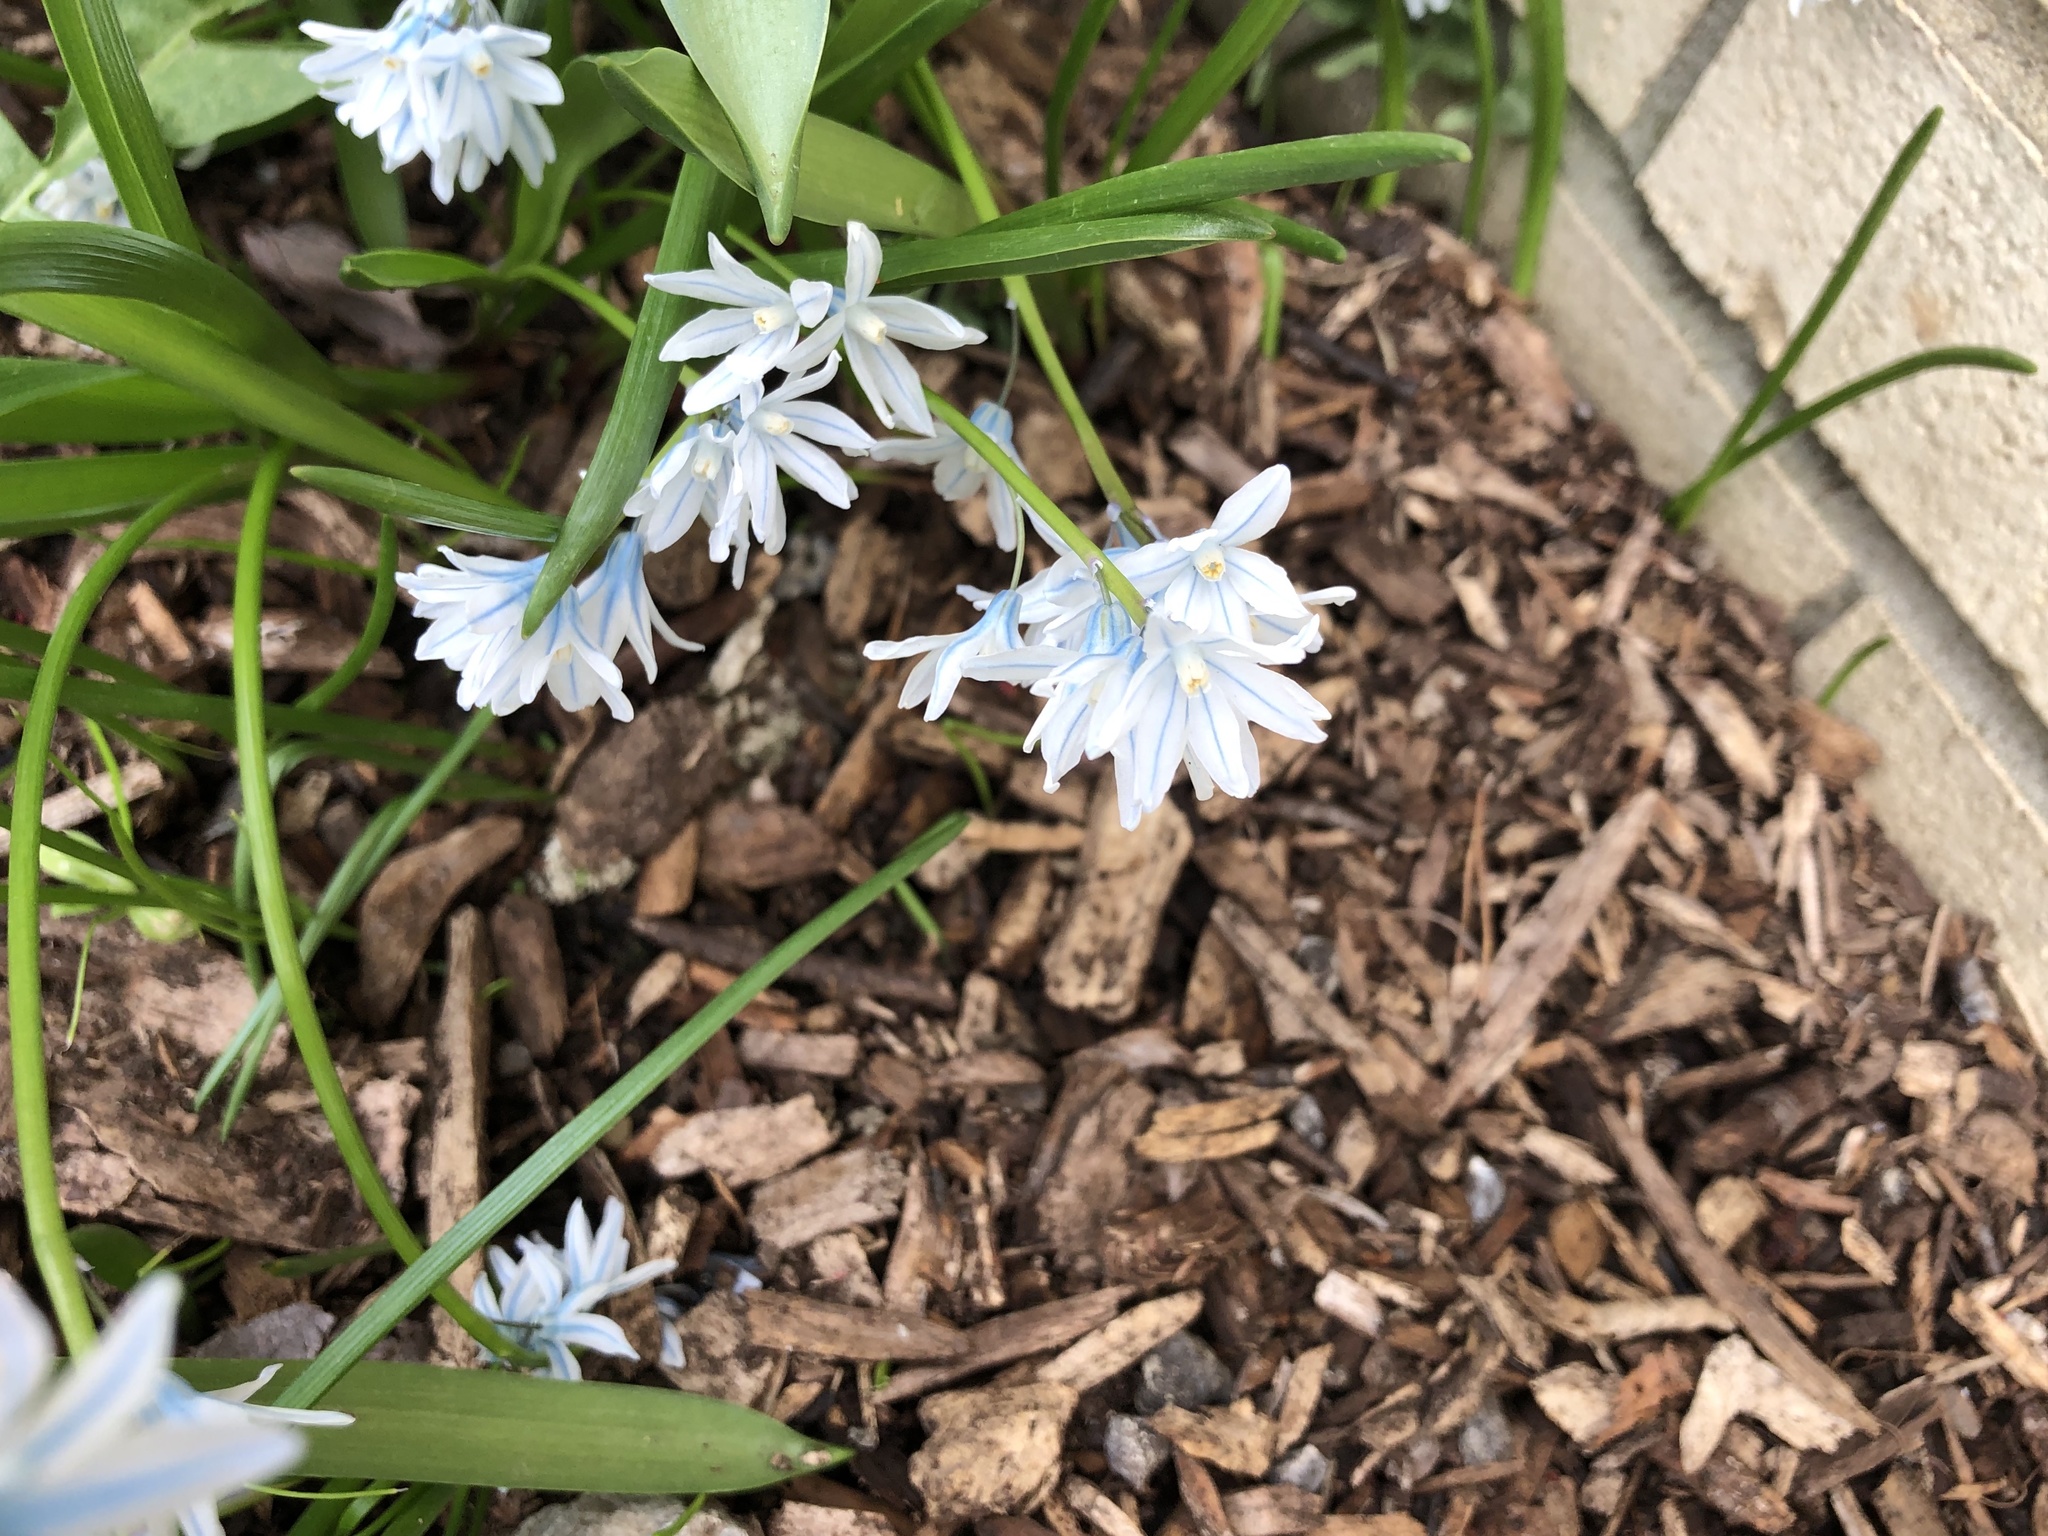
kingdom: Plantae
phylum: Tracheophyta
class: Liliopsida
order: Asparagales
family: Asparagaceae
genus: Puschkinia
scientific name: Puschkinia scilloides
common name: Striped squill
